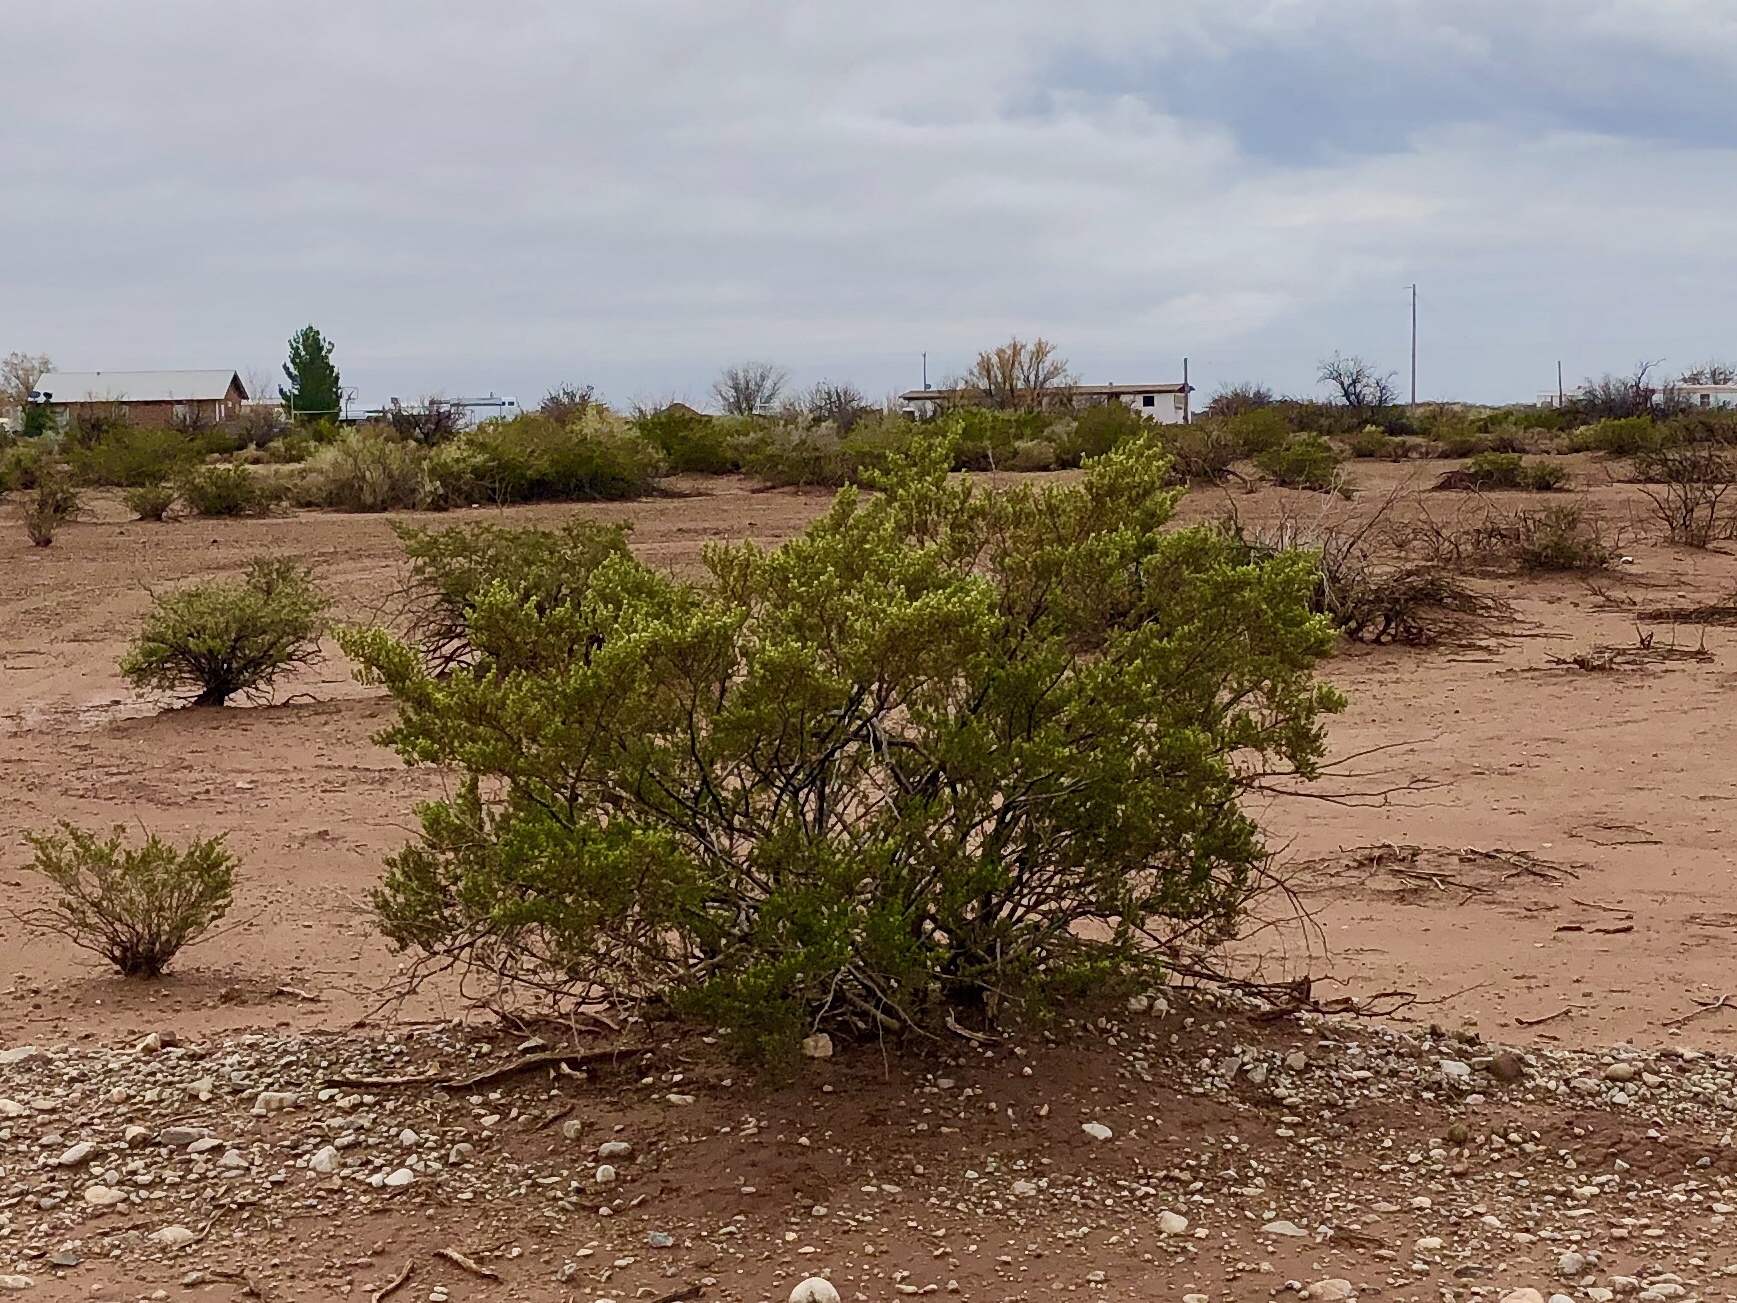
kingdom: Plantae
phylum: Tracheophyta
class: Magnoliopsida
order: Zygophyllales
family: Zygophyllaceae
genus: Larrea
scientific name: Larrea tridentata
